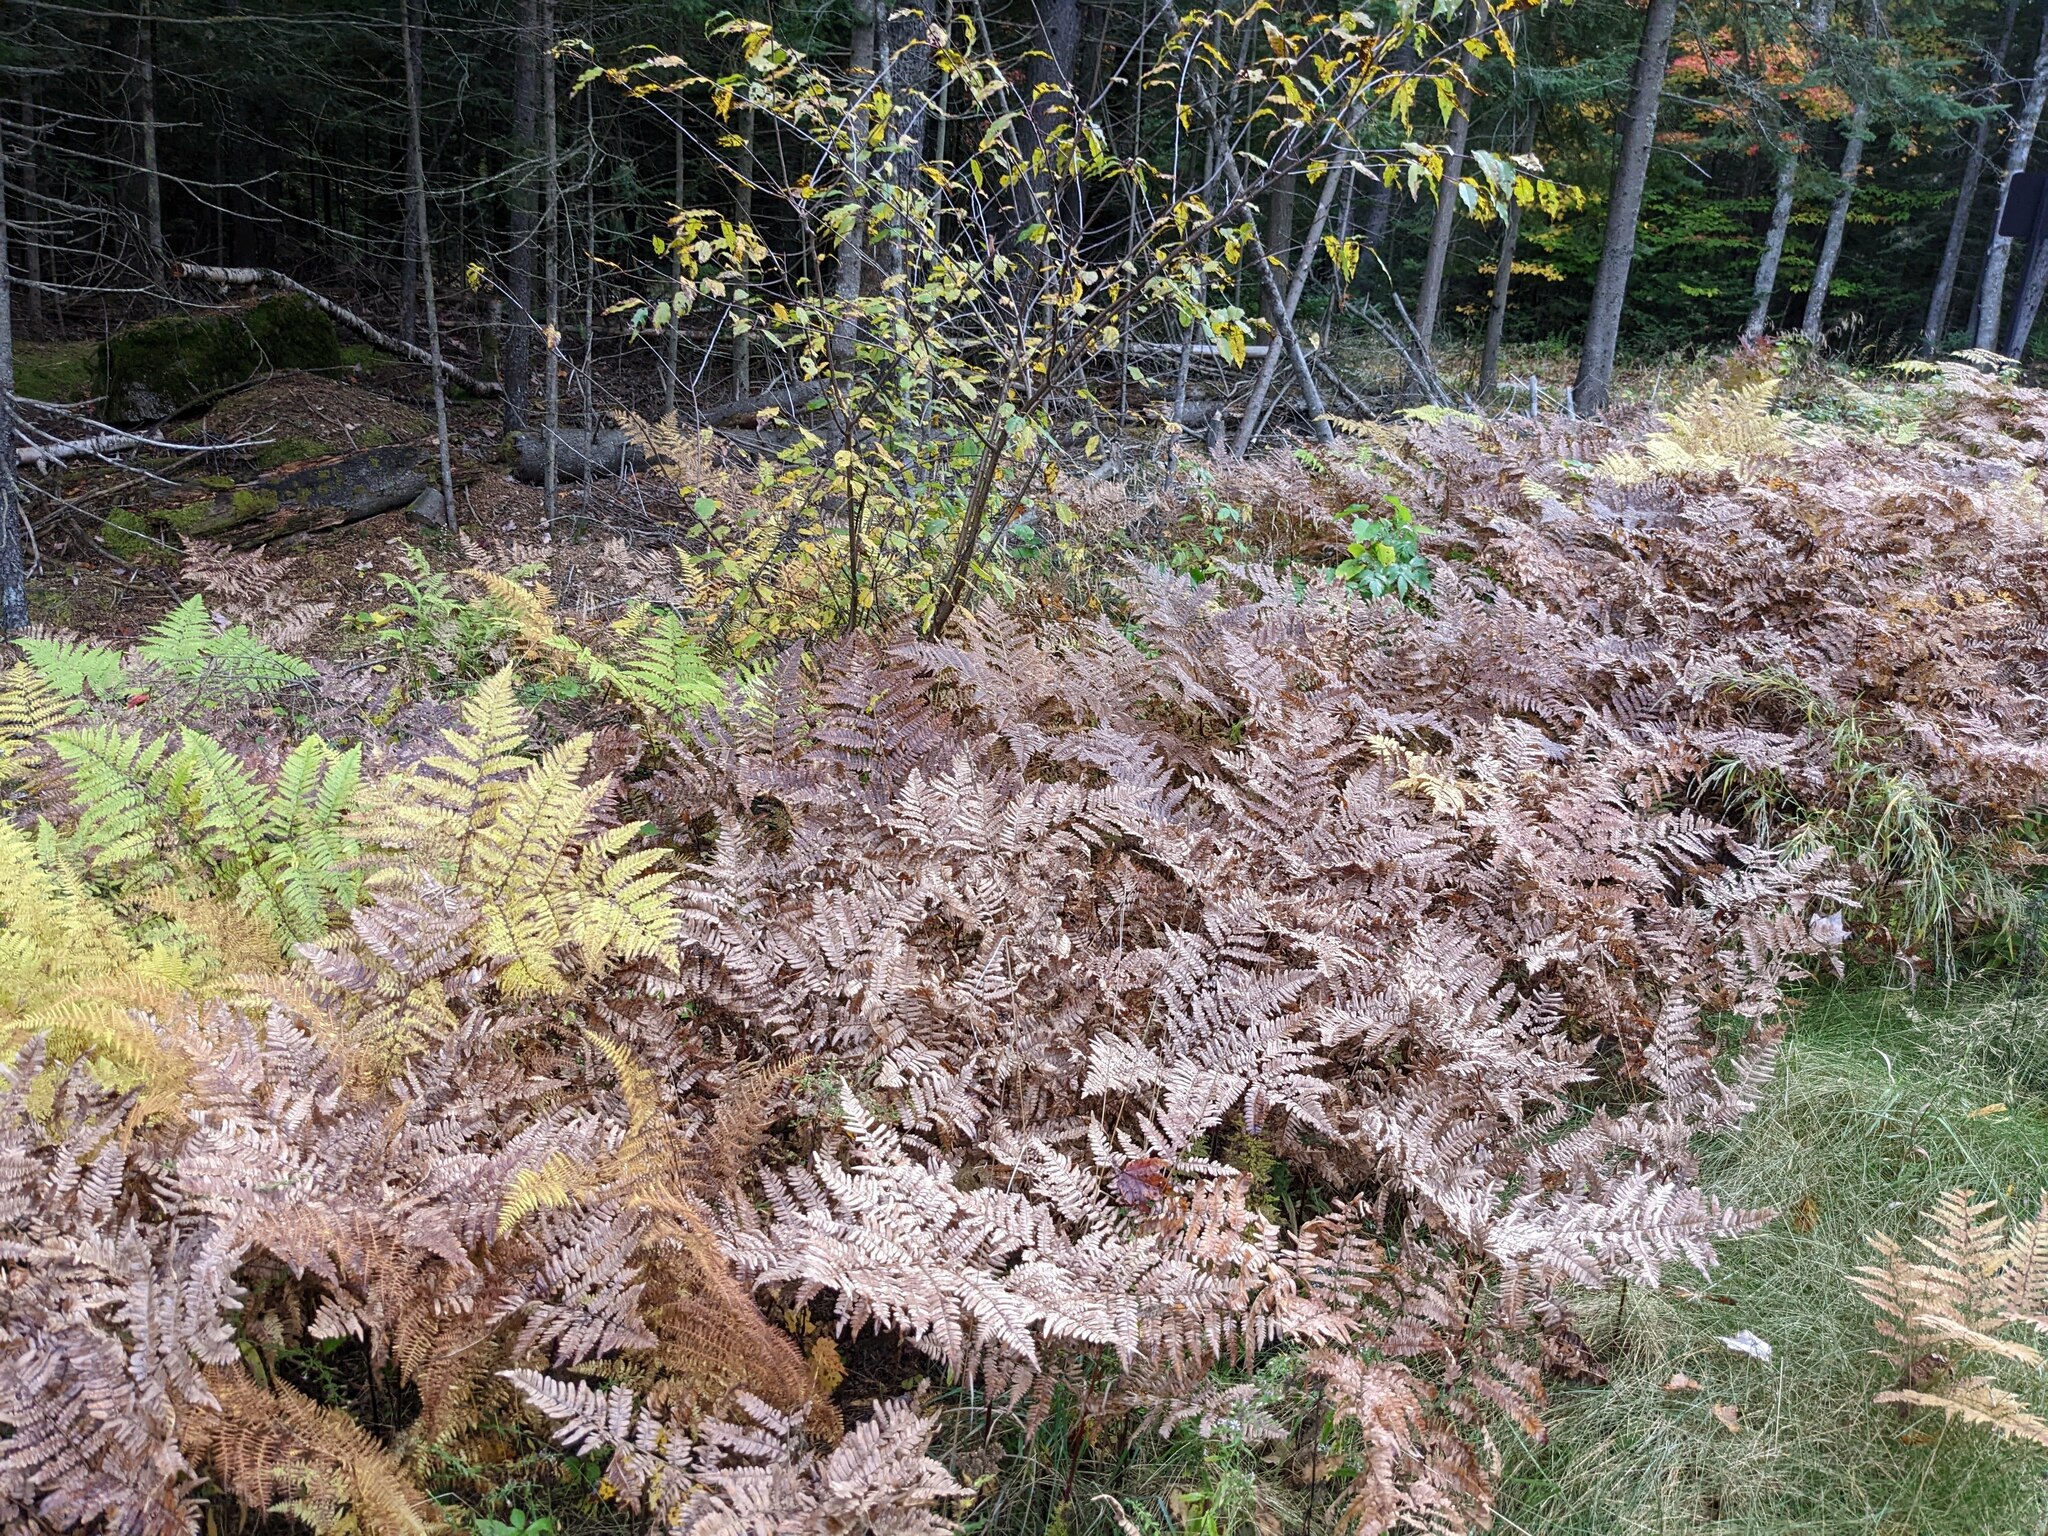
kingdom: Plantae
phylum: Tracheophyta
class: Polypodiopsida
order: Polypodiales
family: Dennstaedtiaceae
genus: Pteridium
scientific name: Pteridium aquilinum
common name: Bracken
